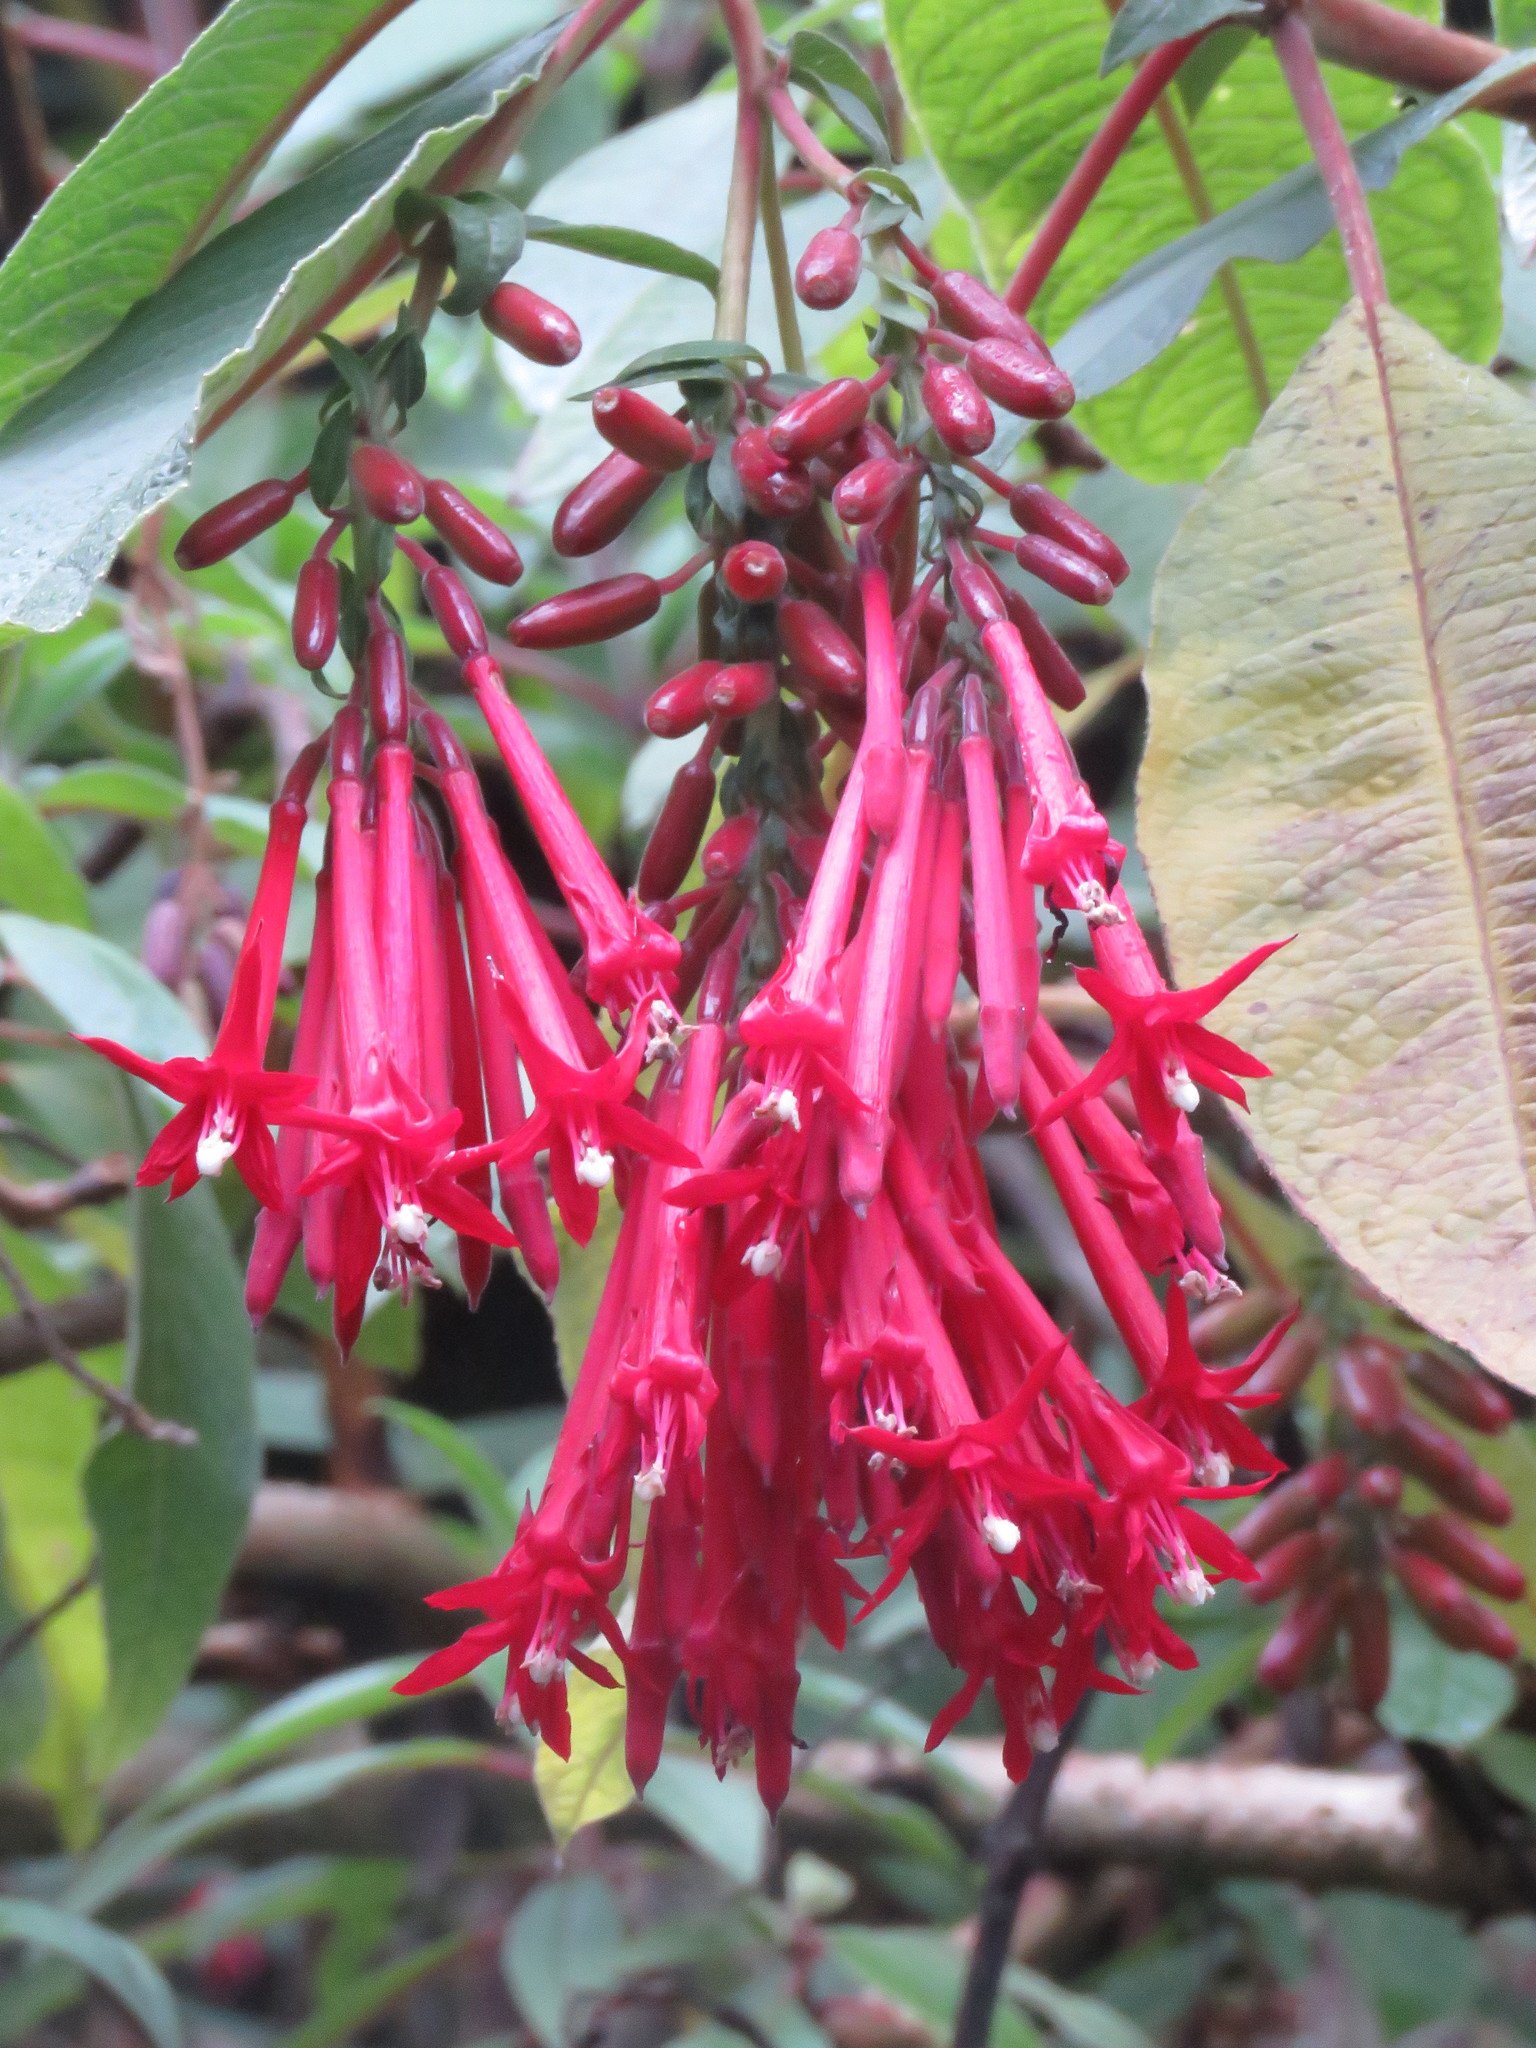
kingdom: Plantae
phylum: Tracheophyta
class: Magnoliopsida
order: Myrtales
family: Onagraceae
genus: Fuchsia
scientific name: Fuchsia boliviana
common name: Bolivian fuchsia
